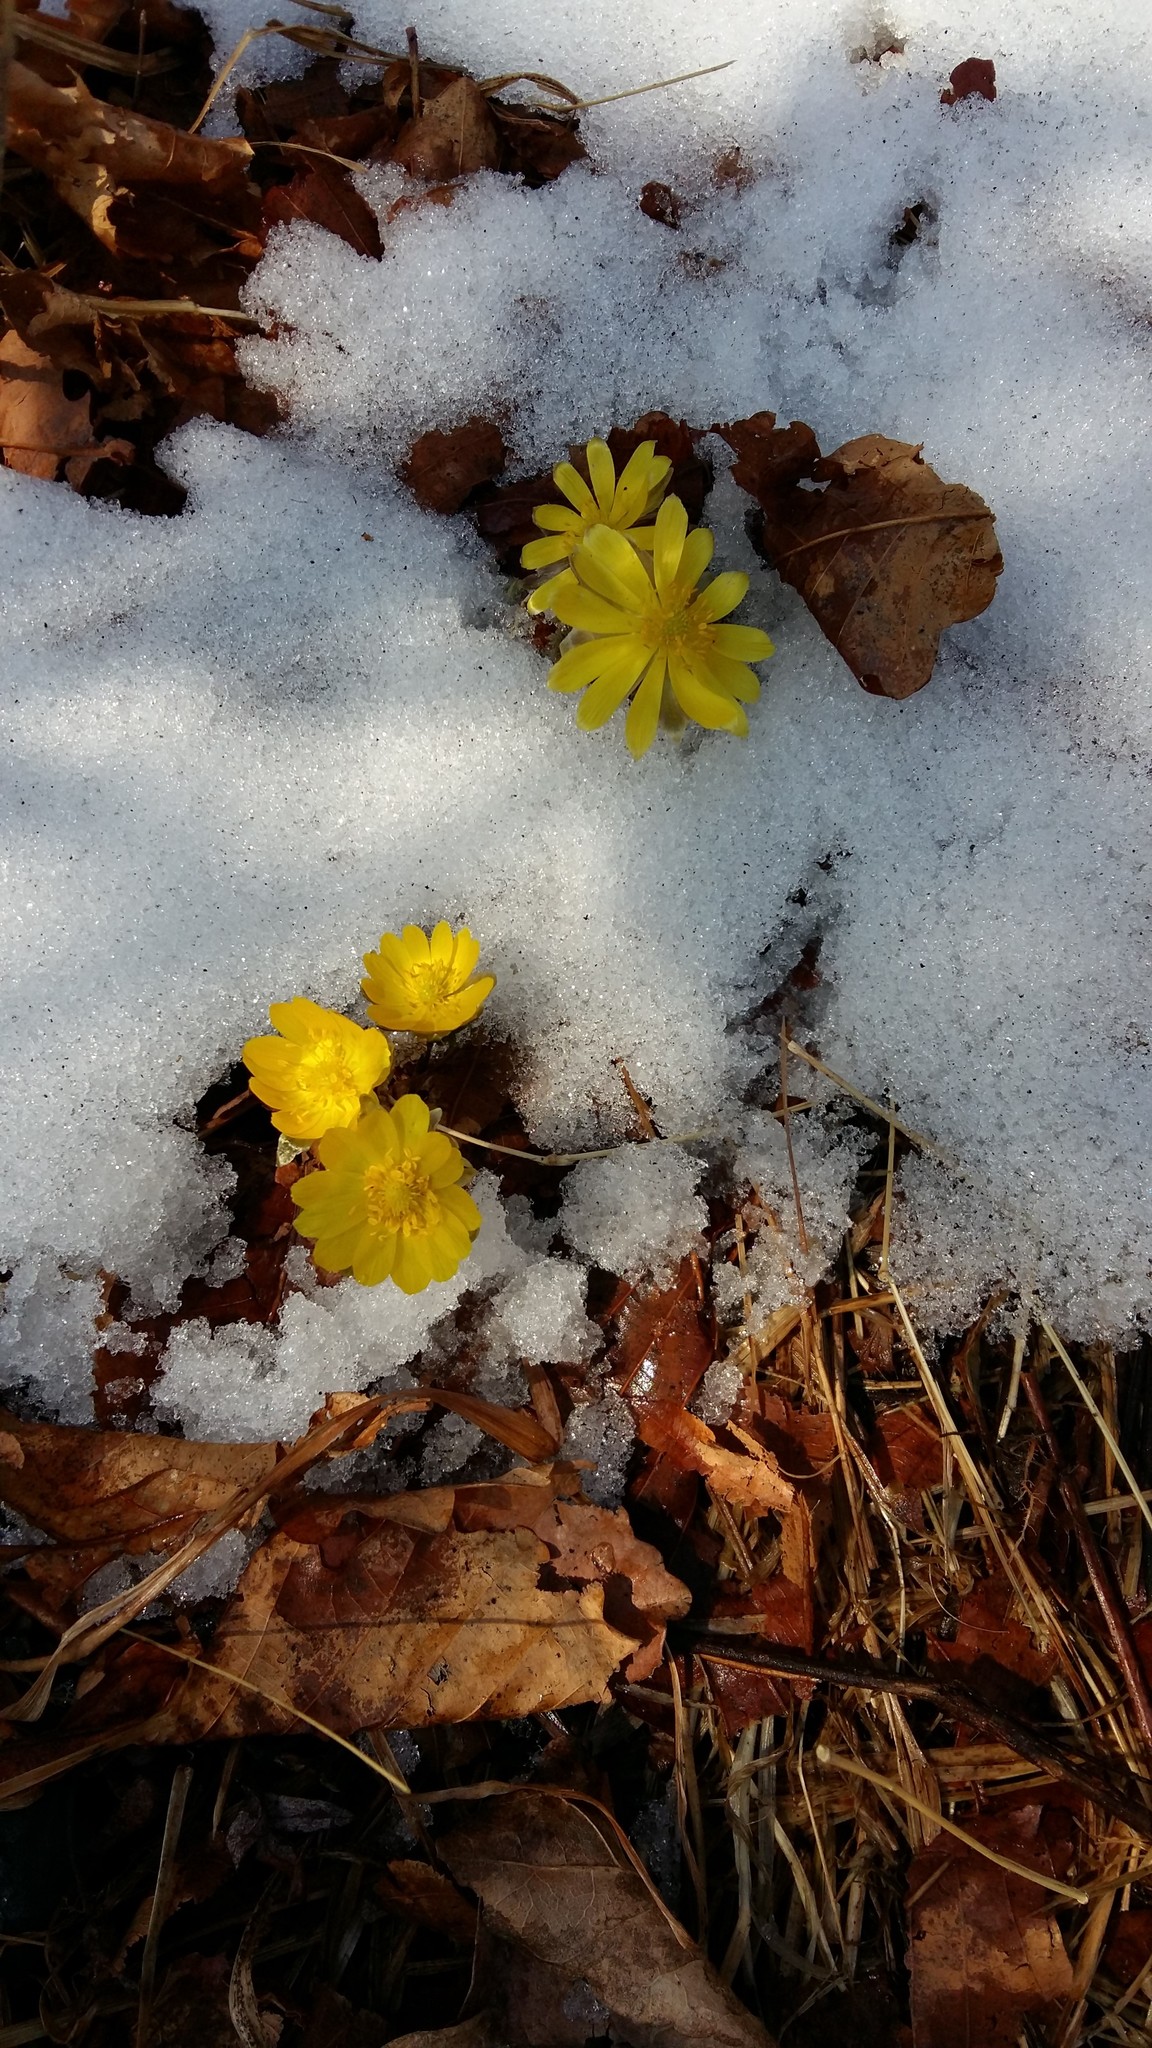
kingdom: Plantae
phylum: Tracheophyta
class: Magnoliopsida
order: Ranunculales
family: Ranunculaceae
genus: Adonis
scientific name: Adonis amurensis
